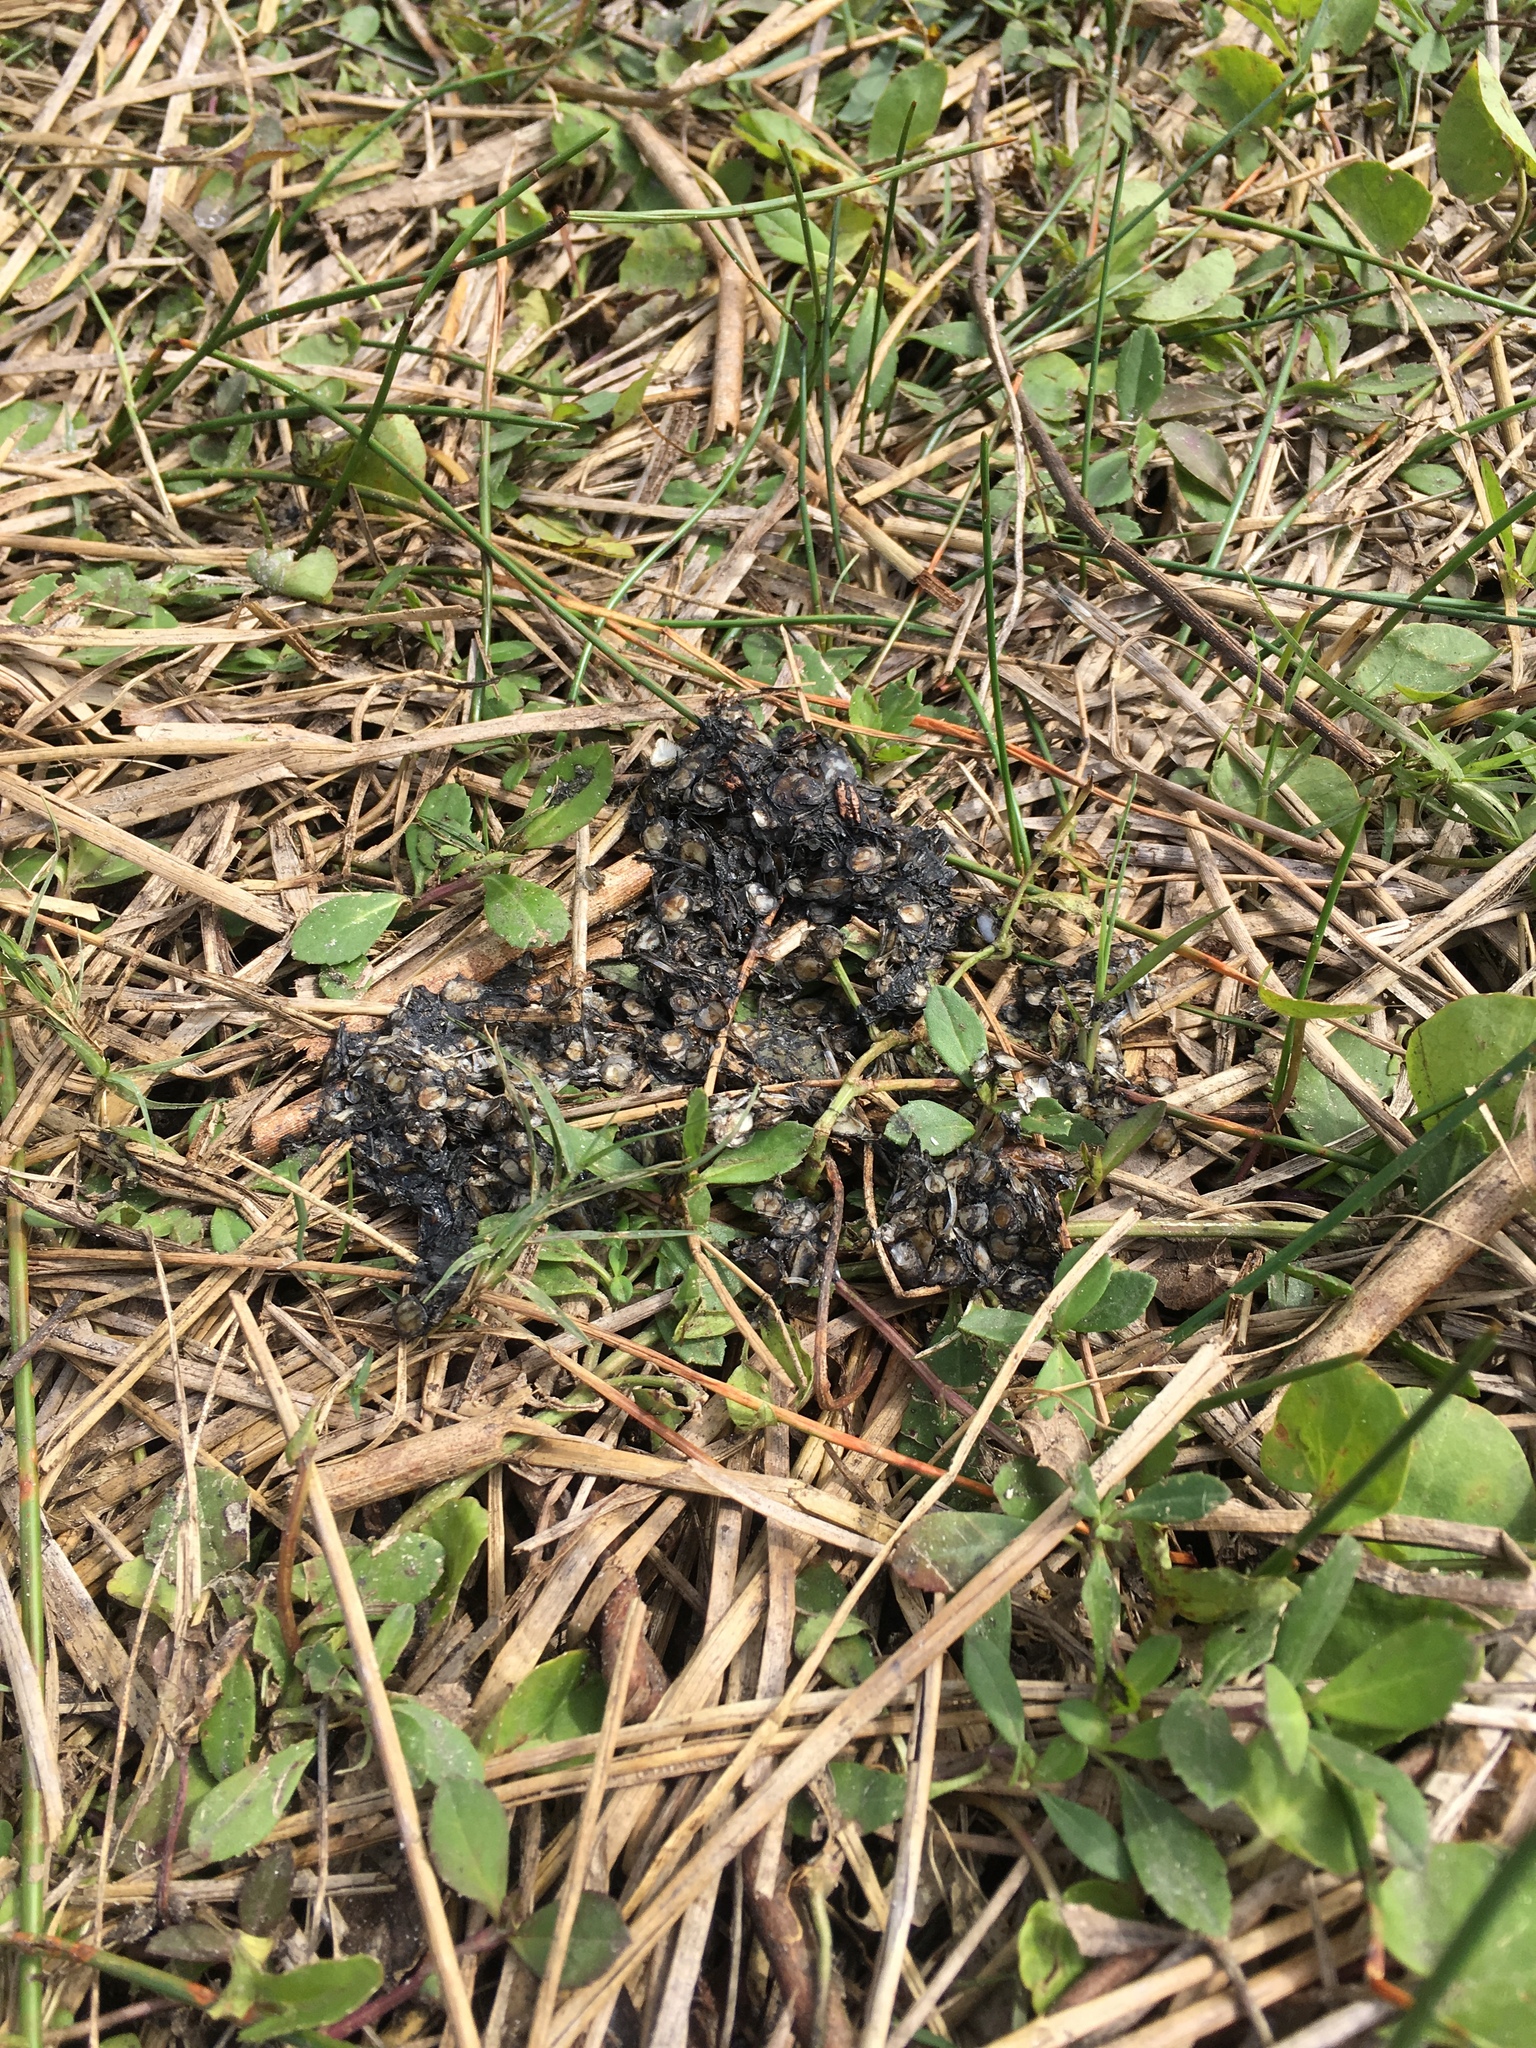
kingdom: Animalia
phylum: Chordata
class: Mammalia
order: Carnivora
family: Mustelidae
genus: Lontra
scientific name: Lontra canadensis
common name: North american river otter
